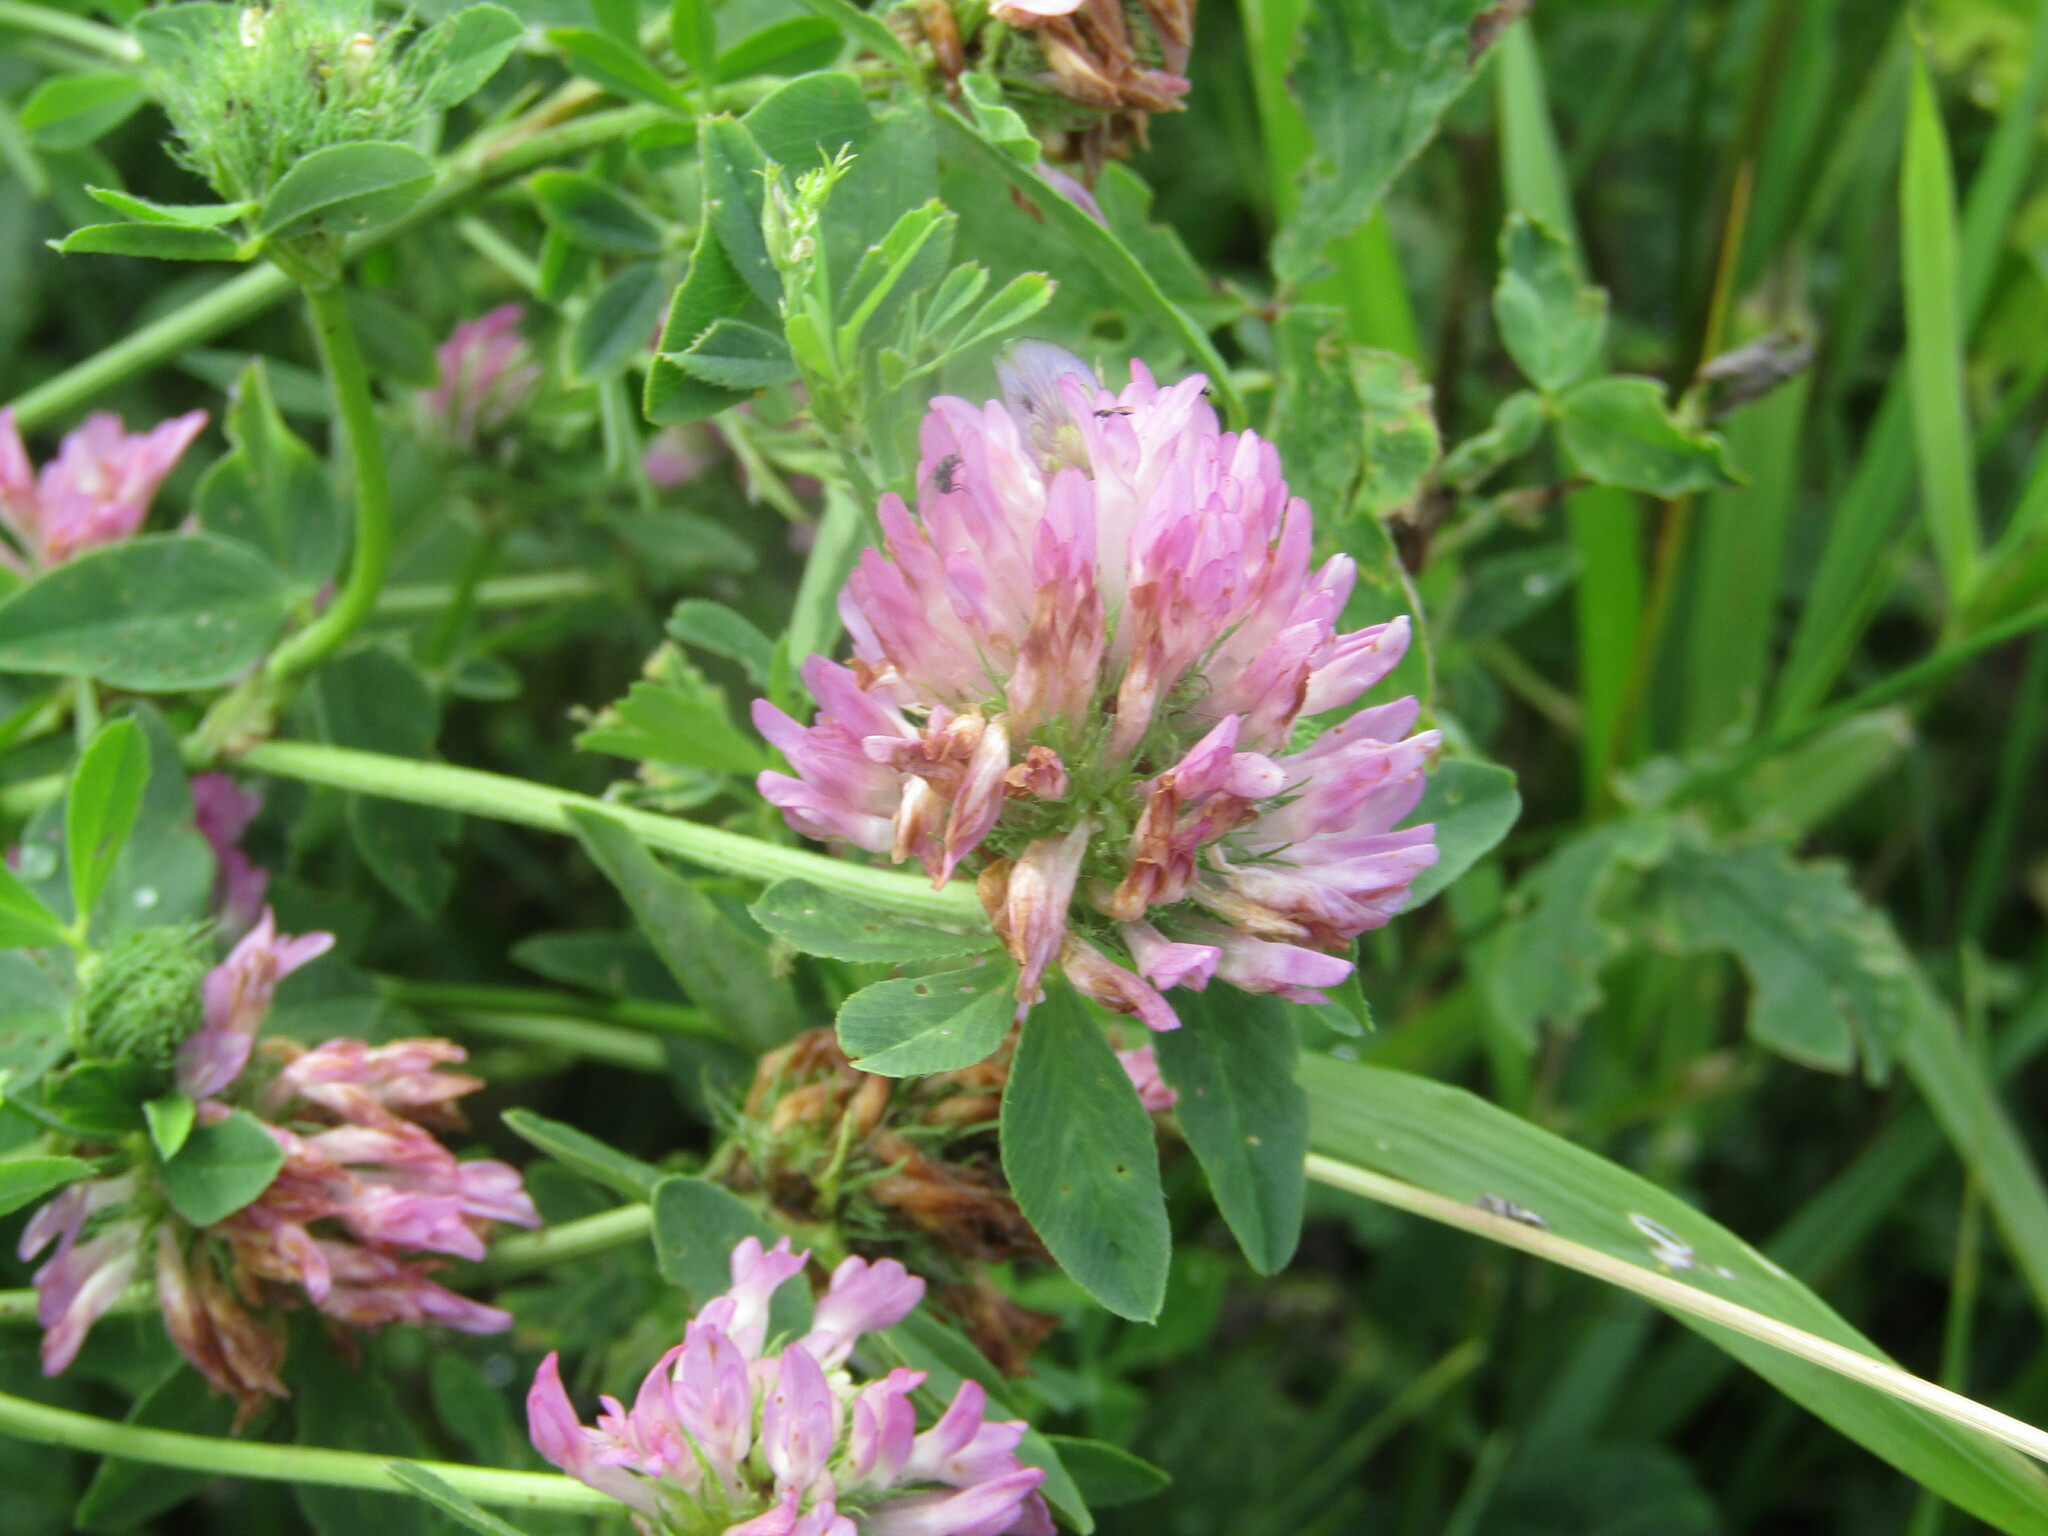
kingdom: Plantae
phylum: Tracheophyta
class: Magnoliopsida
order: Fabales
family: Fabaceae
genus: Trifolium
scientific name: Trifolium pratense
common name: Red clover
